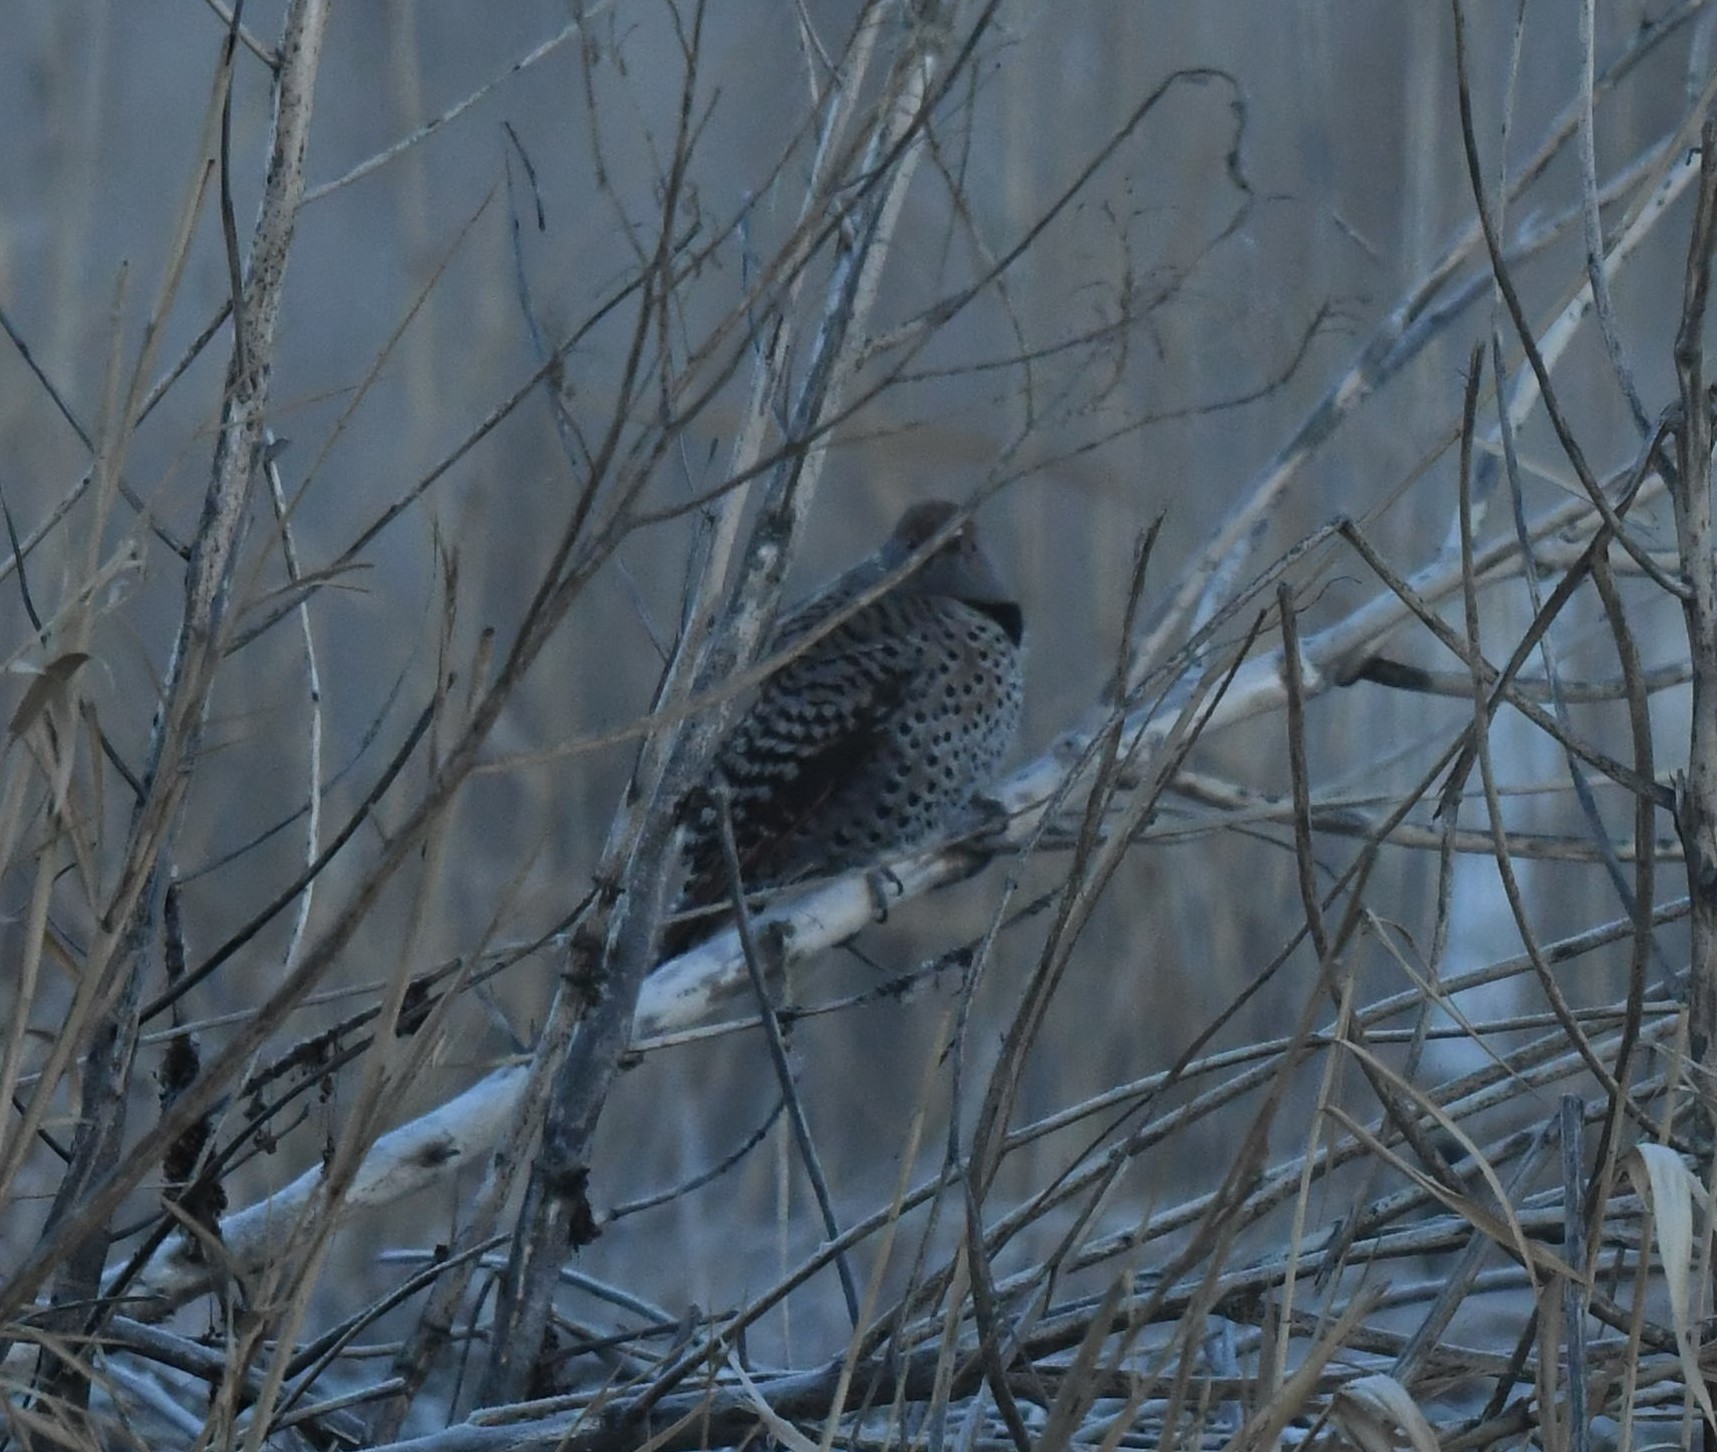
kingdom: Animalia
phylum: Chordata
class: Aves
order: Piciformes
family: Picidae
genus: Colaptes
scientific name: Colaptes auratus
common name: Northern flicker
